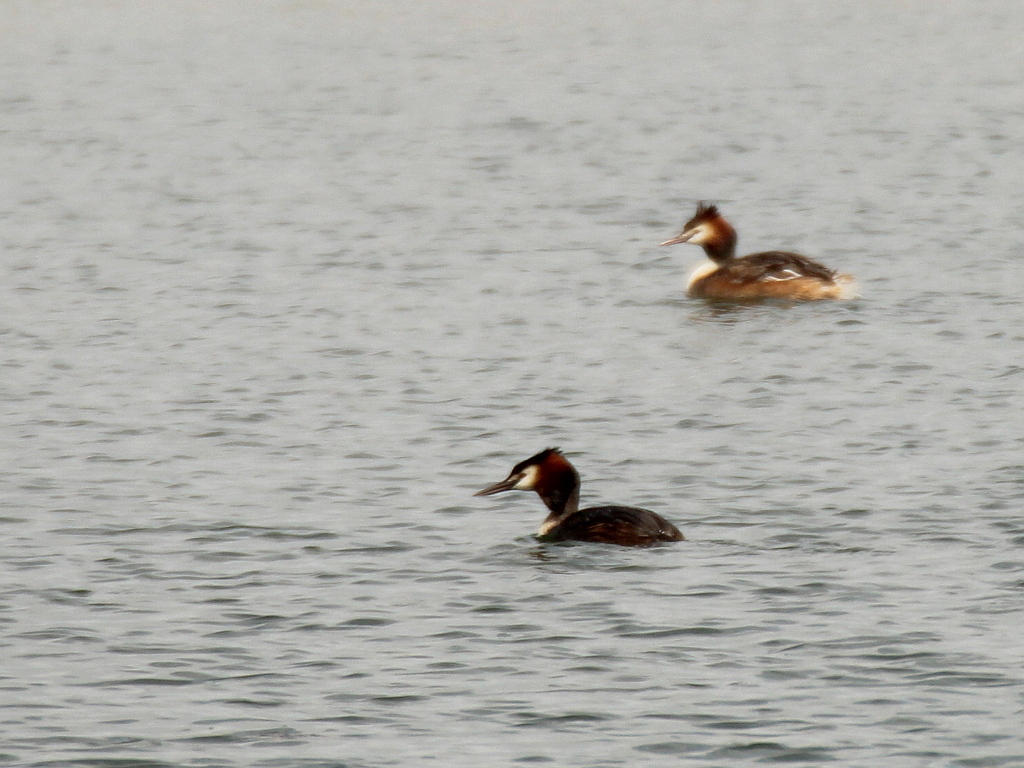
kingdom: Animalia
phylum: Chordata
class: Aves
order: Podicipediformes
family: Podicipedidae
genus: Podiceps
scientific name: Podiceps cristatus
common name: Great crested grebe
